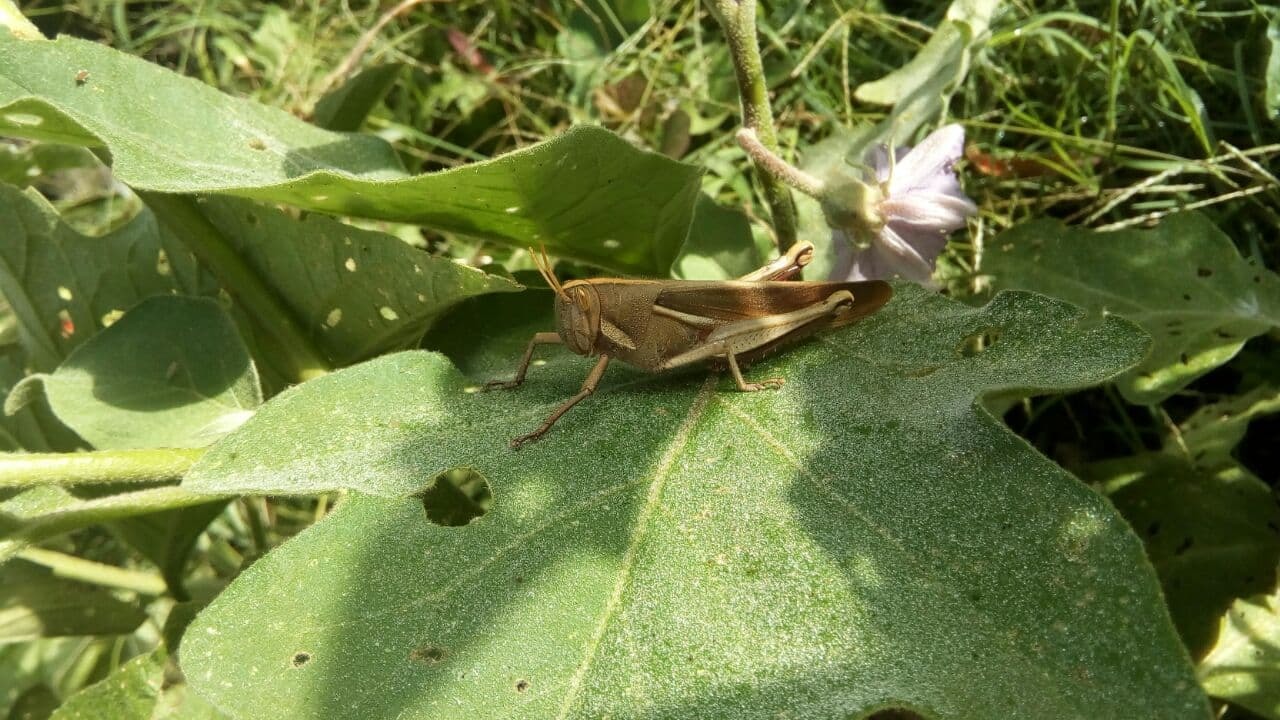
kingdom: Animalia
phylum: Arthropoda
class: Insecta
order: Orthoptera
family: Acrididae
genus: Schistocerca
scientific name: Schistocerca flavofasciata
